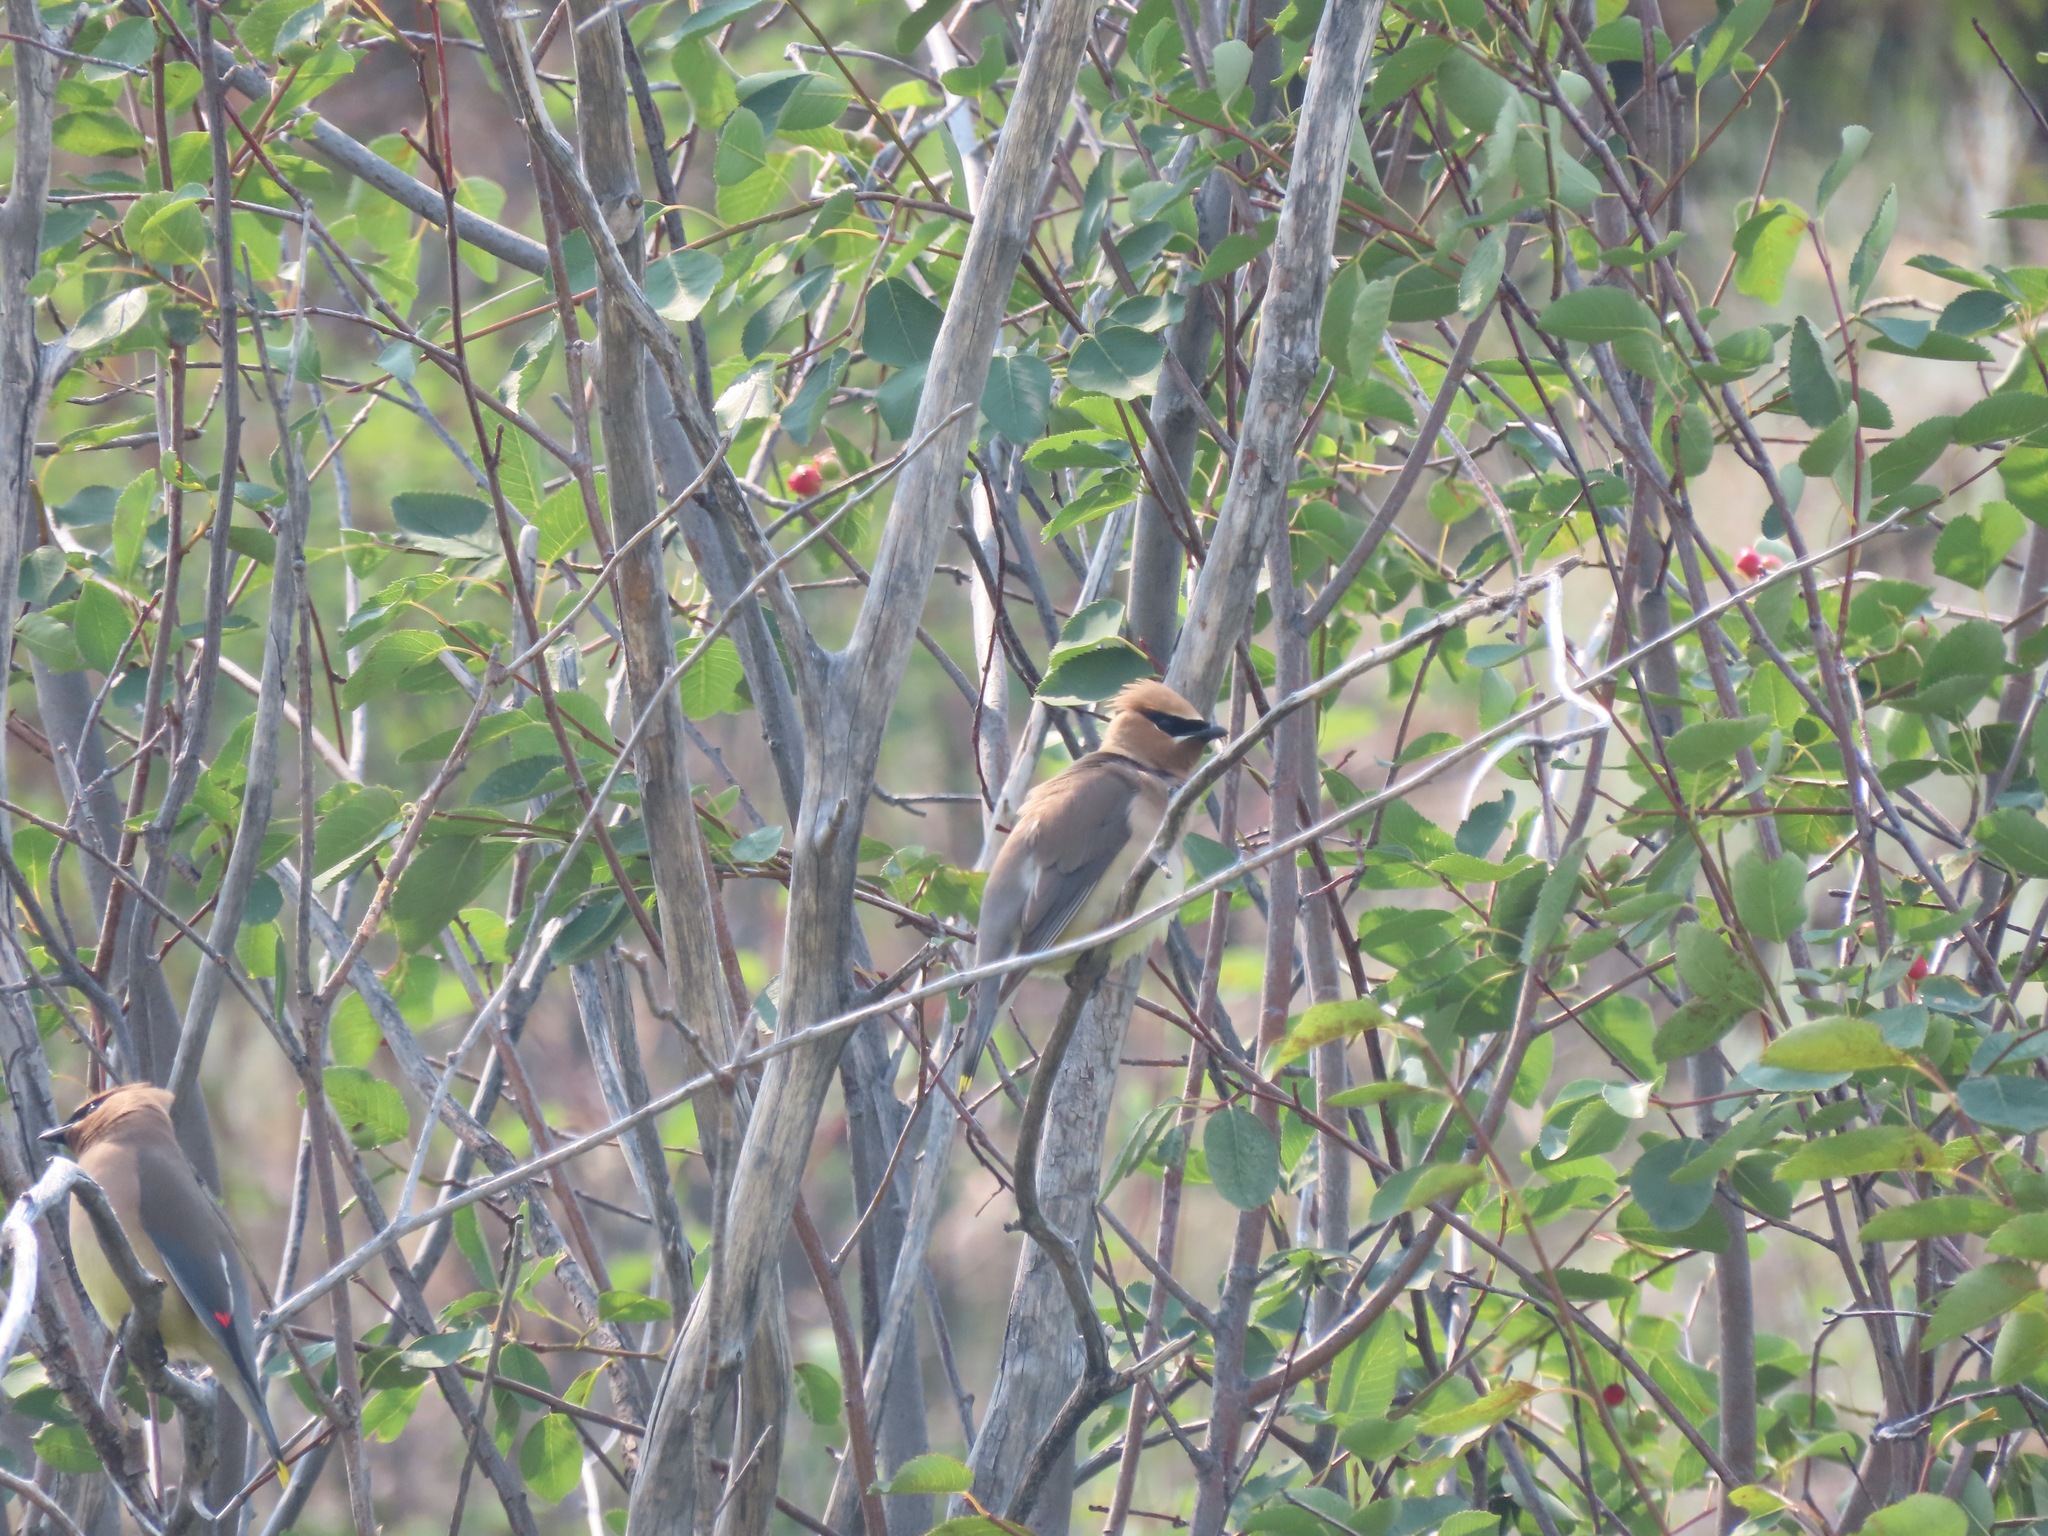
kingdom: Animalia
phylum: Chordata
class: Aves
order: Passeriformes
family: Bombycillidae
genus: Bombycilla
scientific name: Bombycilla cedrorum
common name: Cedar waxwing
